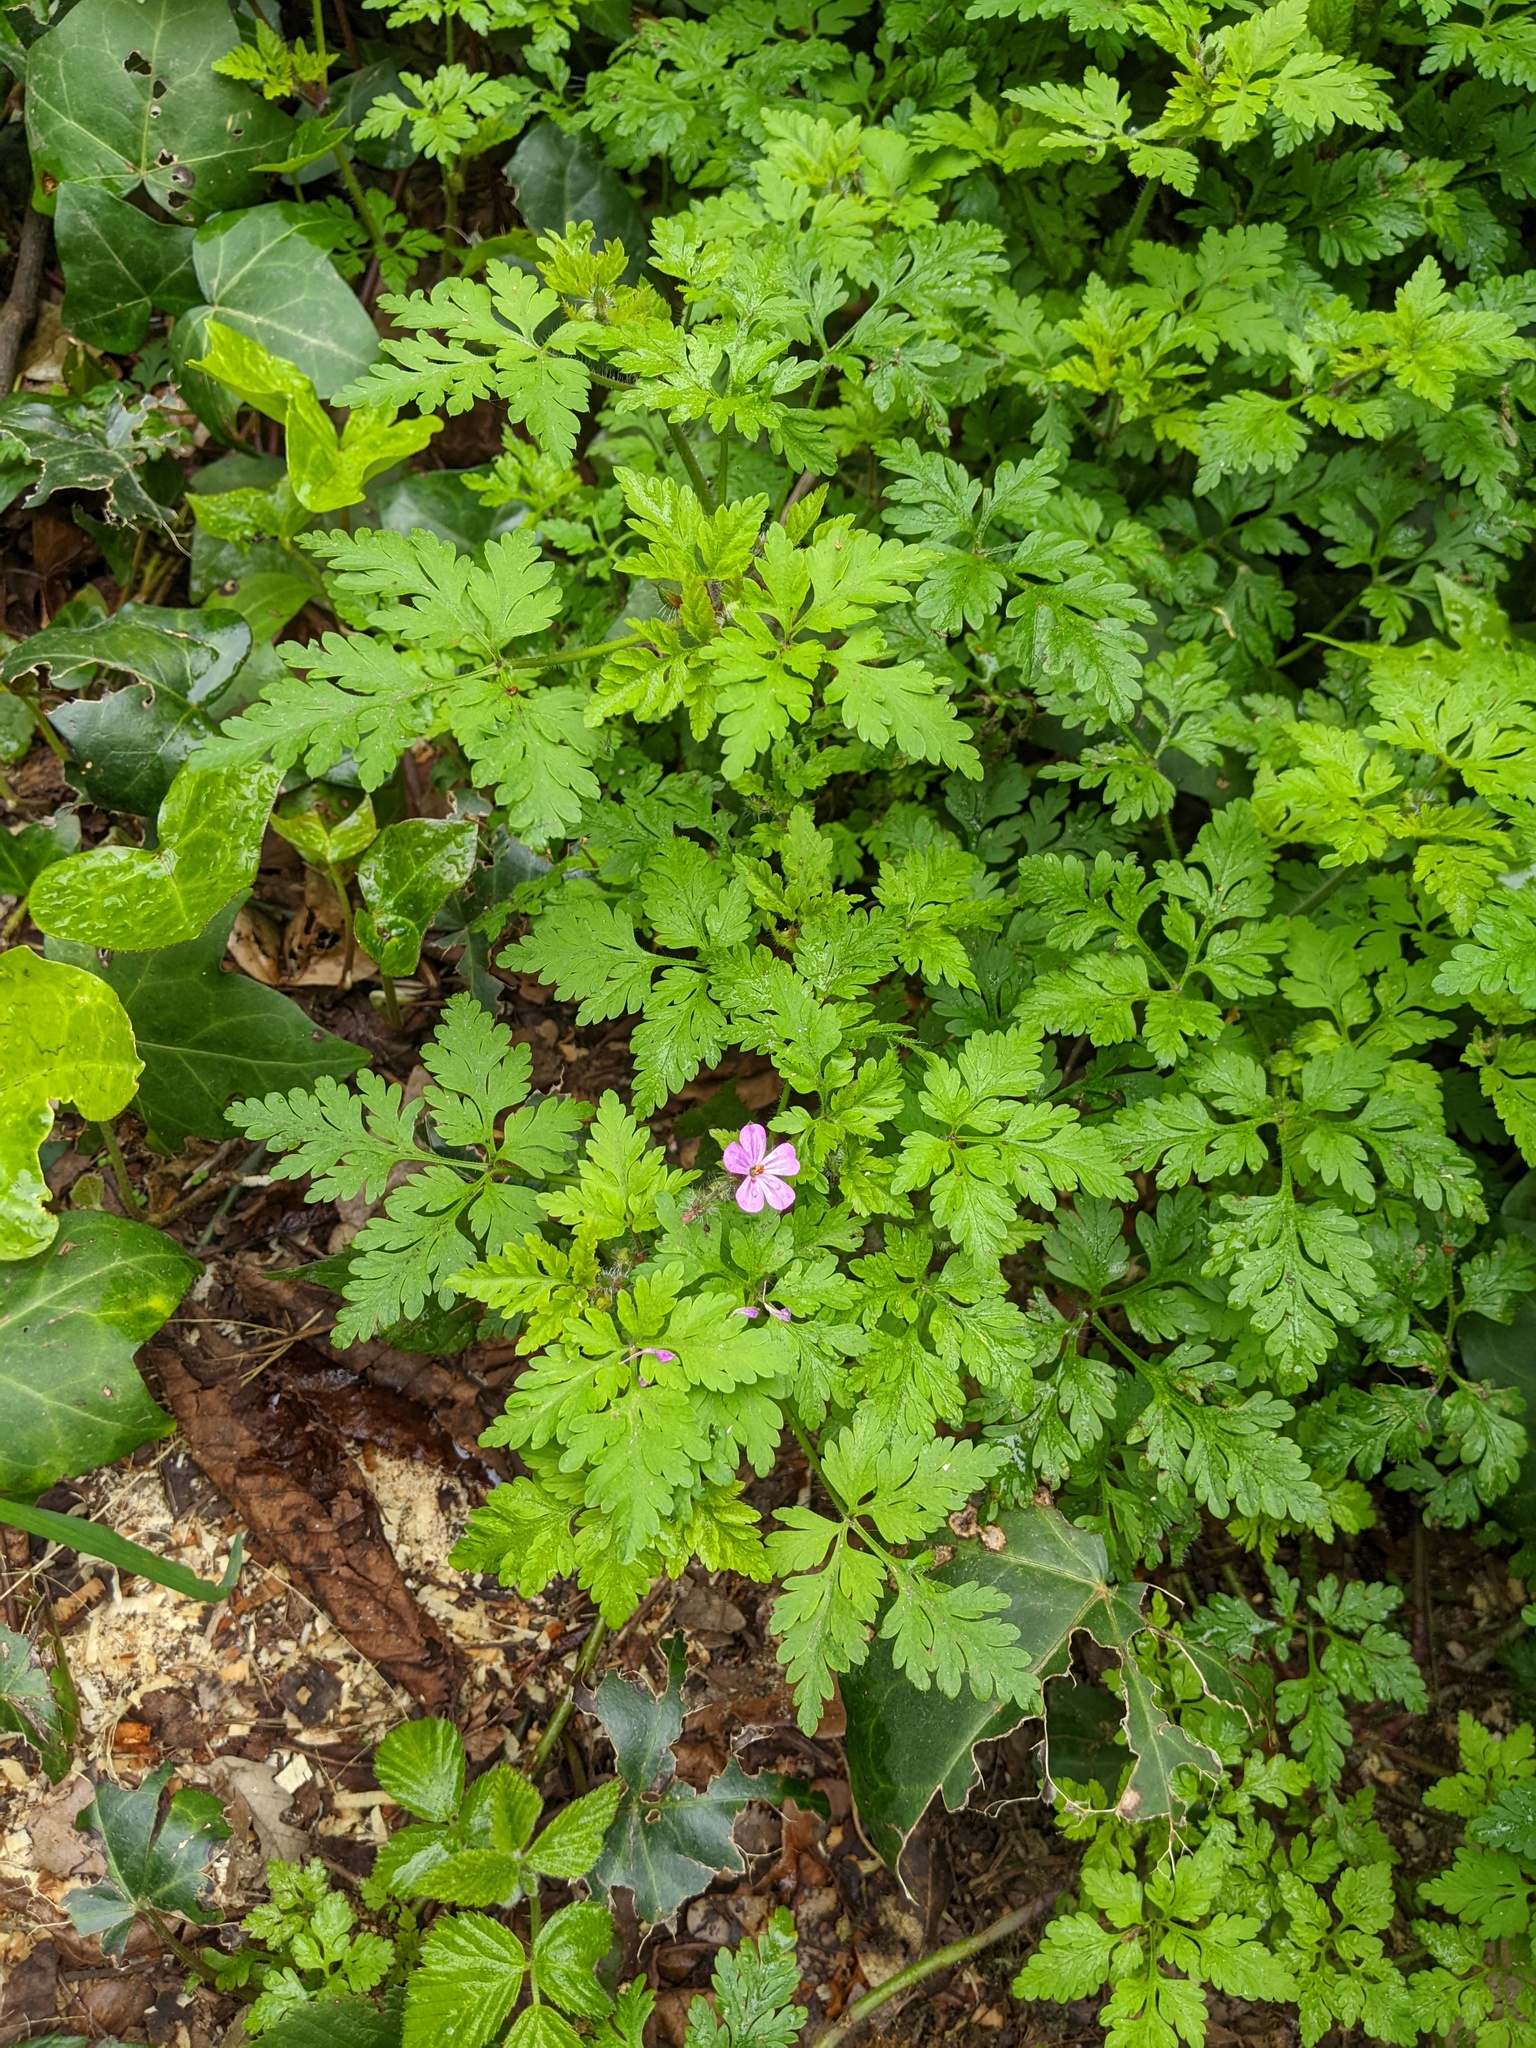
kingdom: Plantae
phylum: Tracheophyta
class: Magnoliopsida
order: Geraniales
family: Geraniaceae
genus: Geranium
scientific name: Geranium robertianum
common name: Herb-robert
